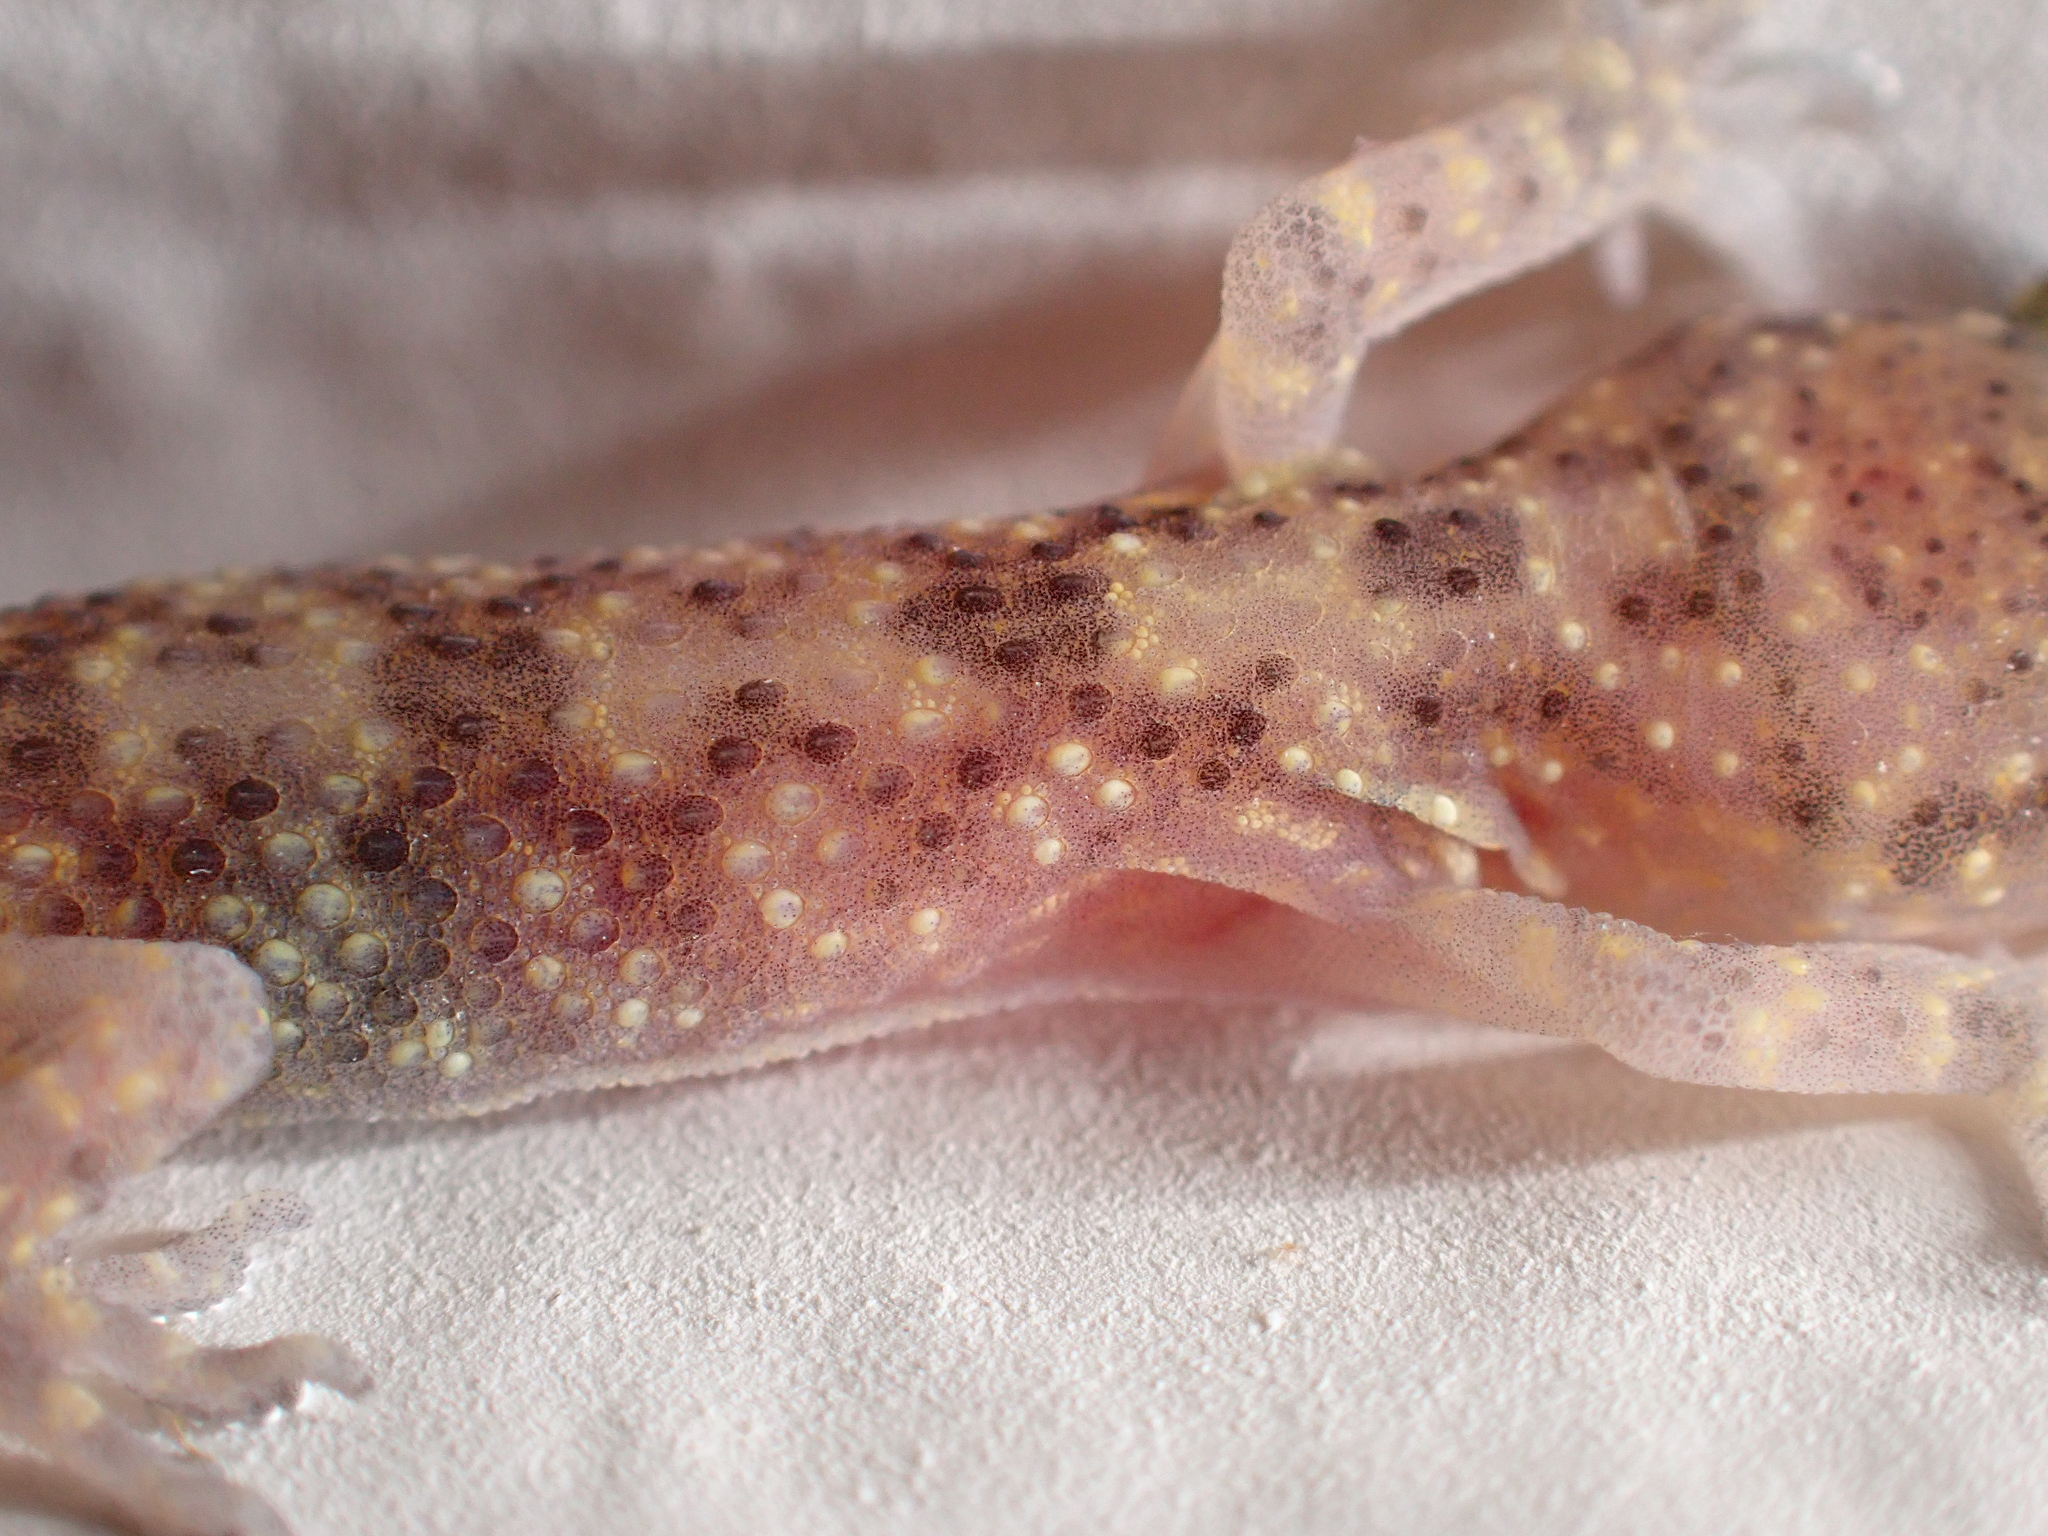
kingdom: Animalia
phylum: Chordata
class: Squamata
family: Gekkonidae
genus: Hemidactylus
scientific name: Hemidactylus turcicus
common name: Turkish gecko
